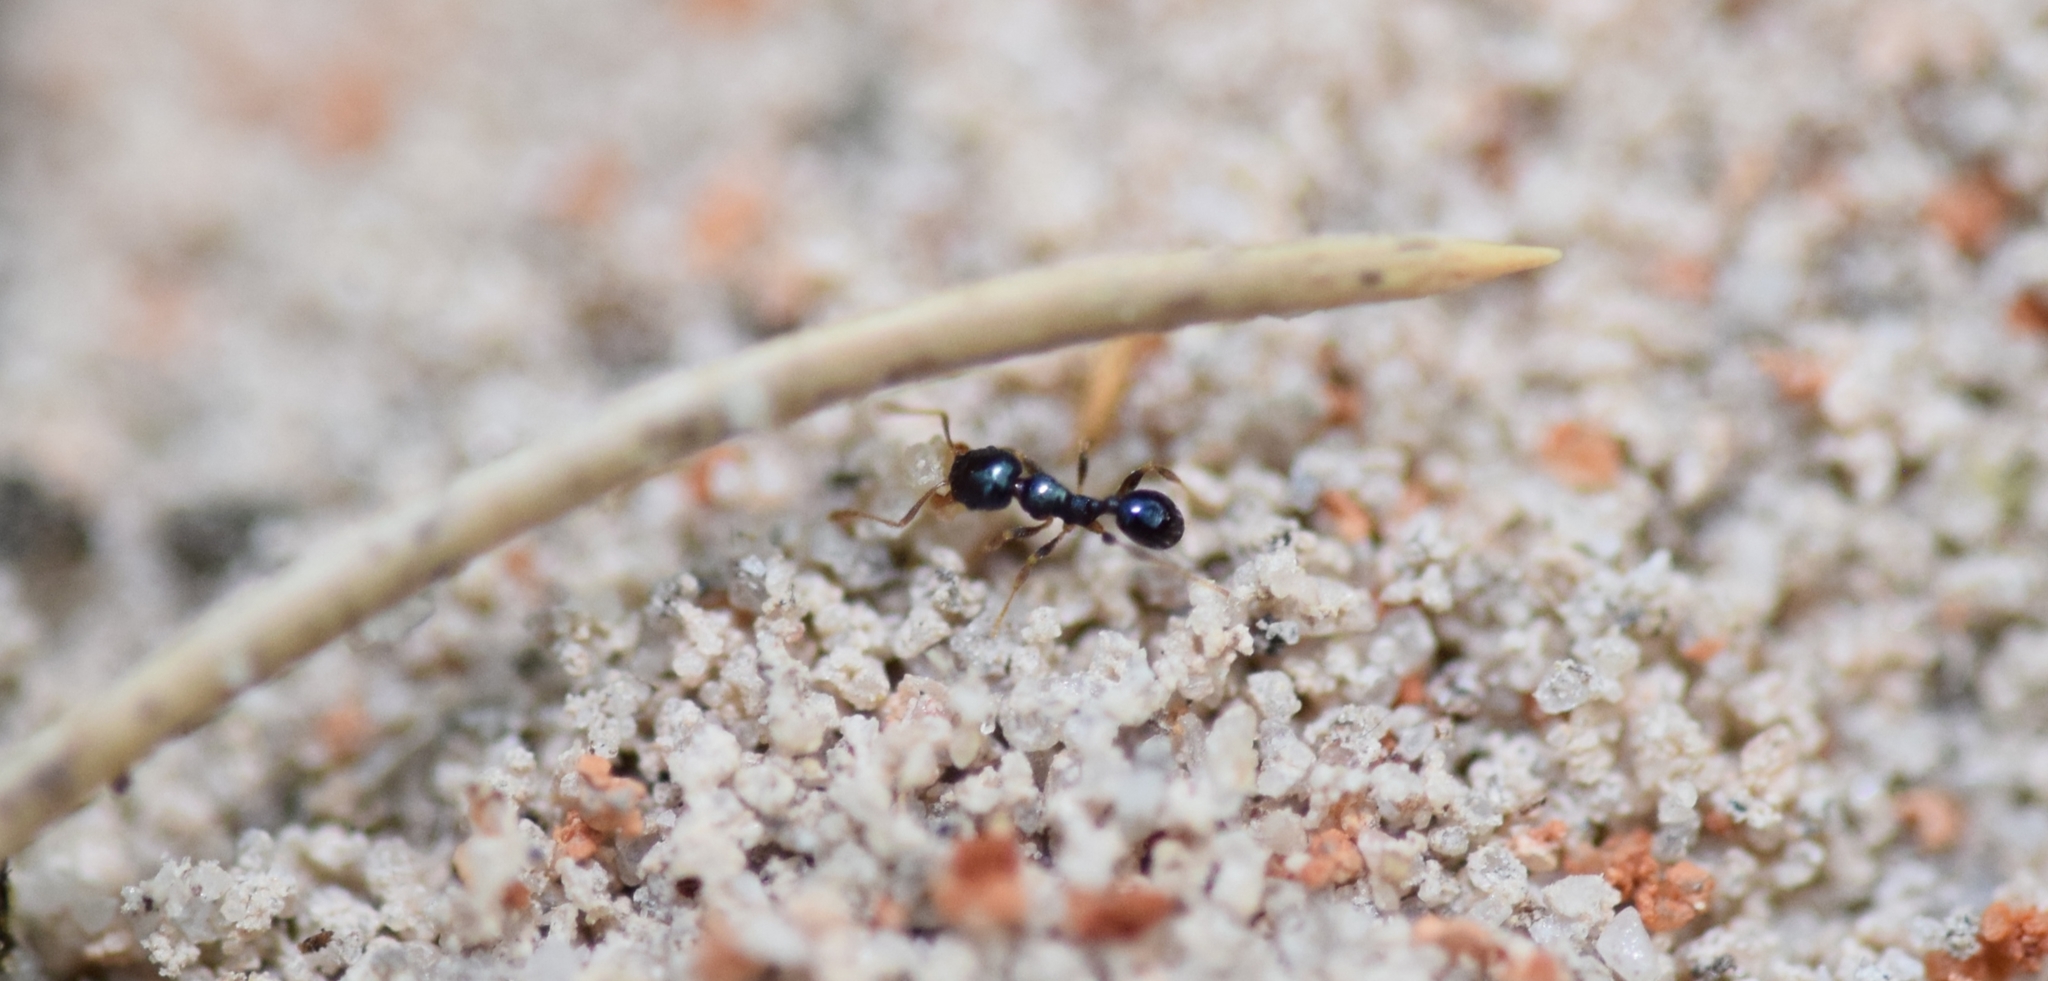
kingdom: Animalia
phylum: Arthropoda
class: Insecta
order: Hymenoptera
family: Formicidae
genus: Pheidole
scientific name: Pheidole metallescens
